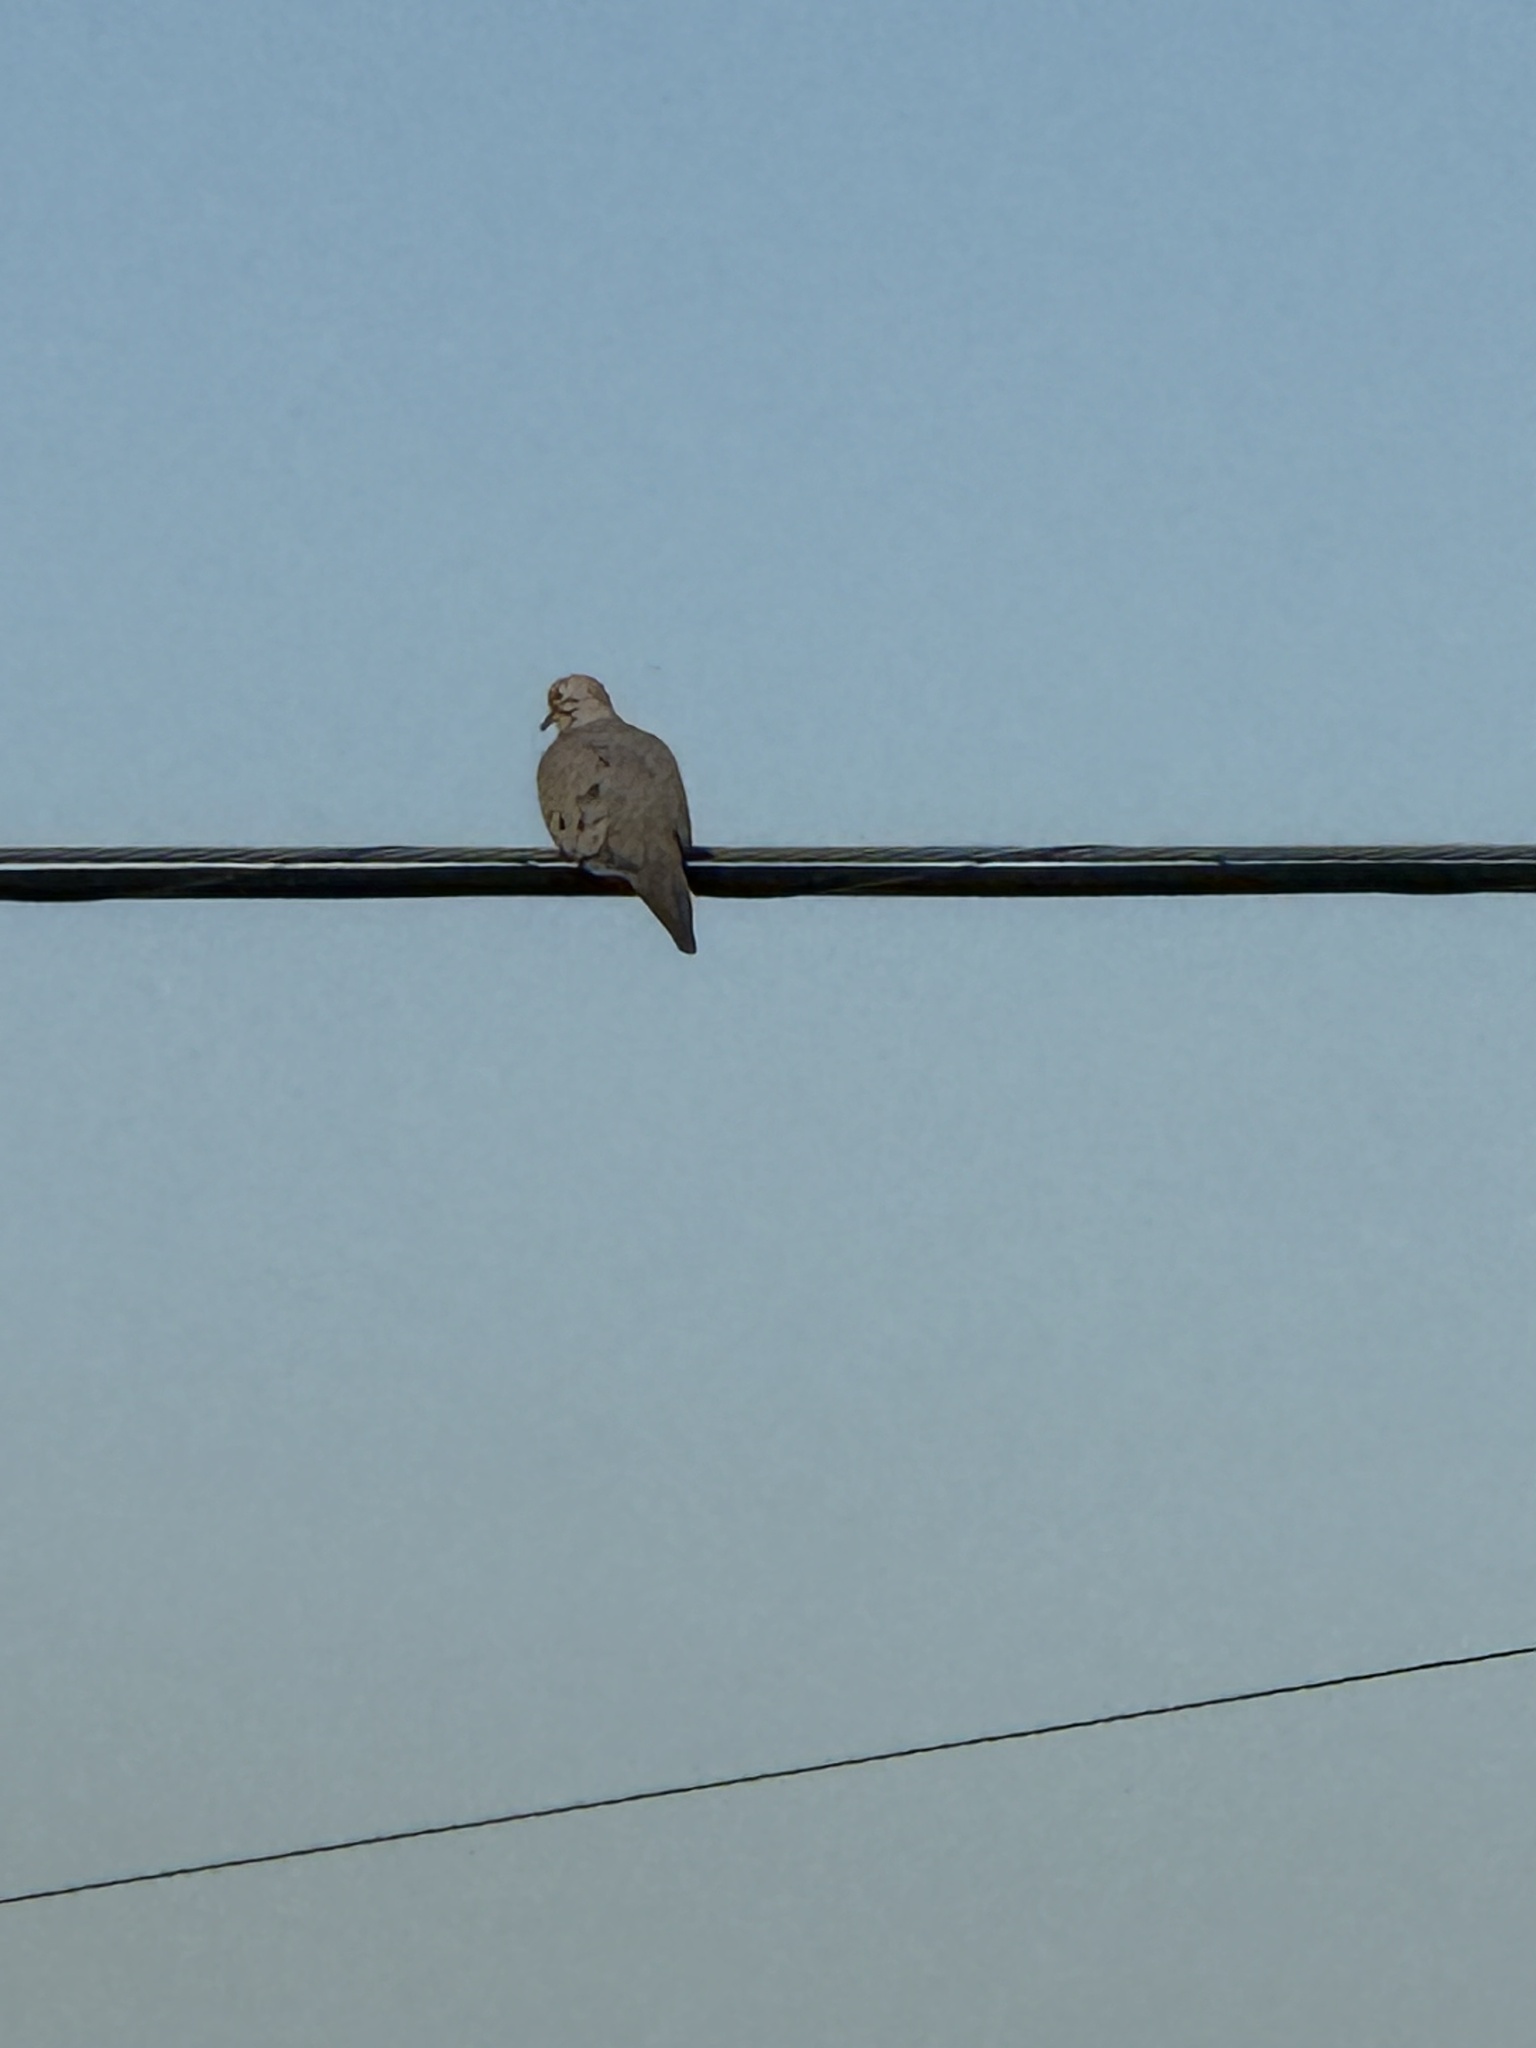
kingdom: Animalia
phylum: Chordata
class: Aves
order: Columbiformes
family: Columbidae
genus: Zenaida
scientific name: Zenaida macroura
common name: Mourning dove
